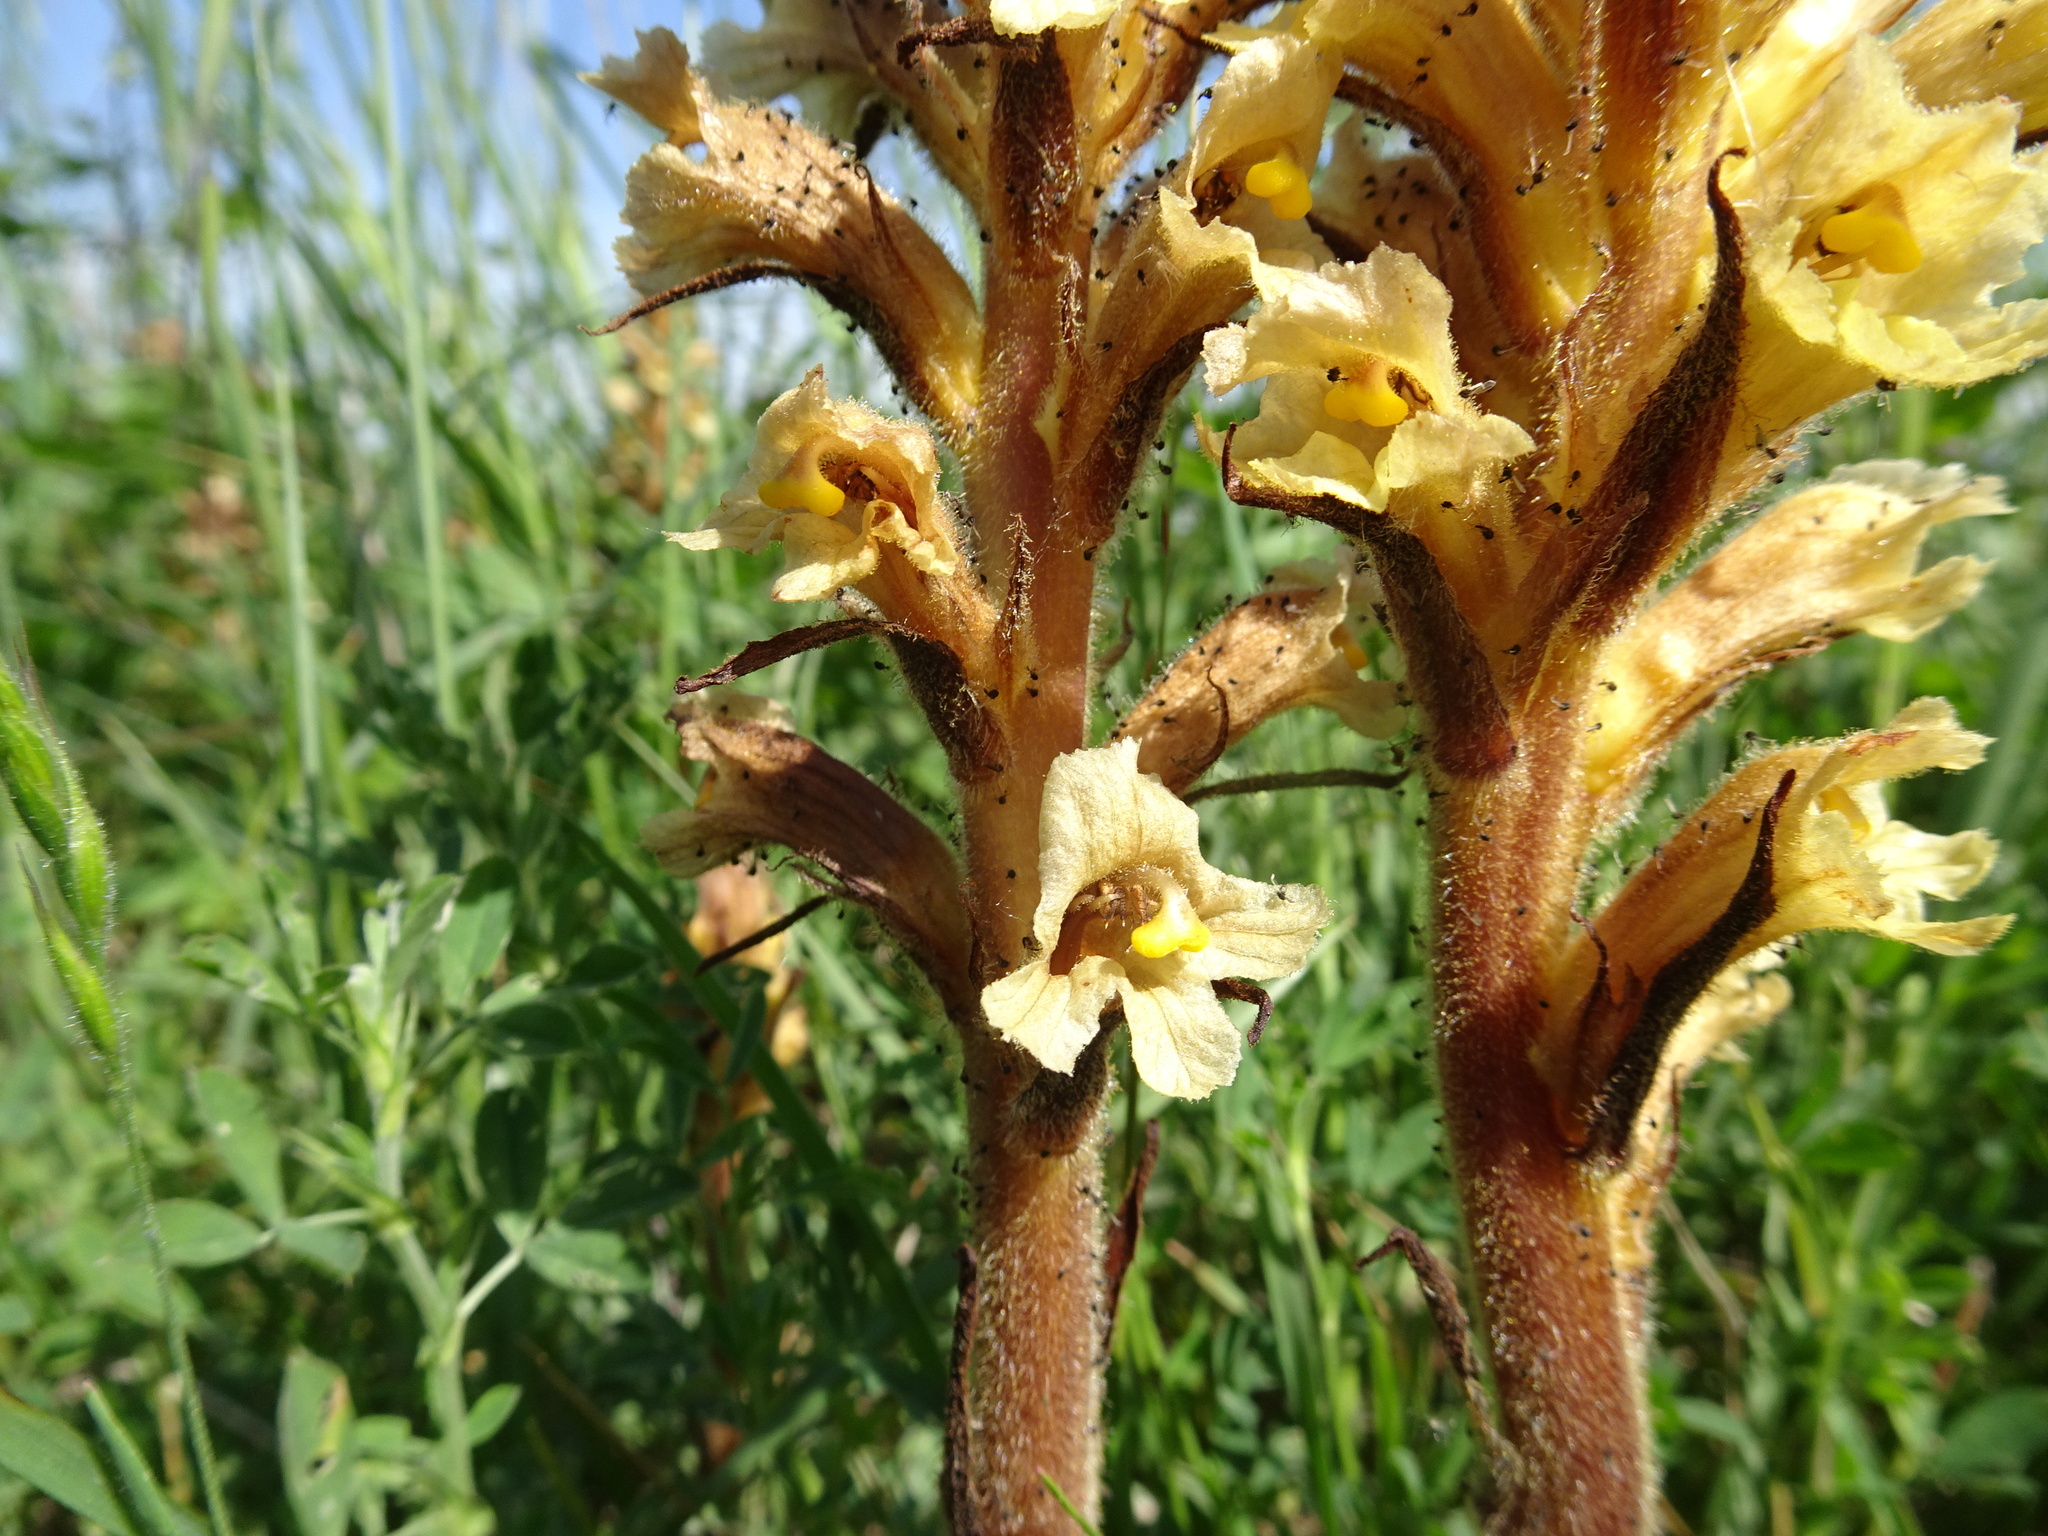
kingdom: Plantae
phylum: Tracheophyta
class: Magnoliopsida
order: Lamiales
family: Orobanchaceae
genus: Orobanche
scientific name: Orobanche lutea
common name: Yellow broomrape
